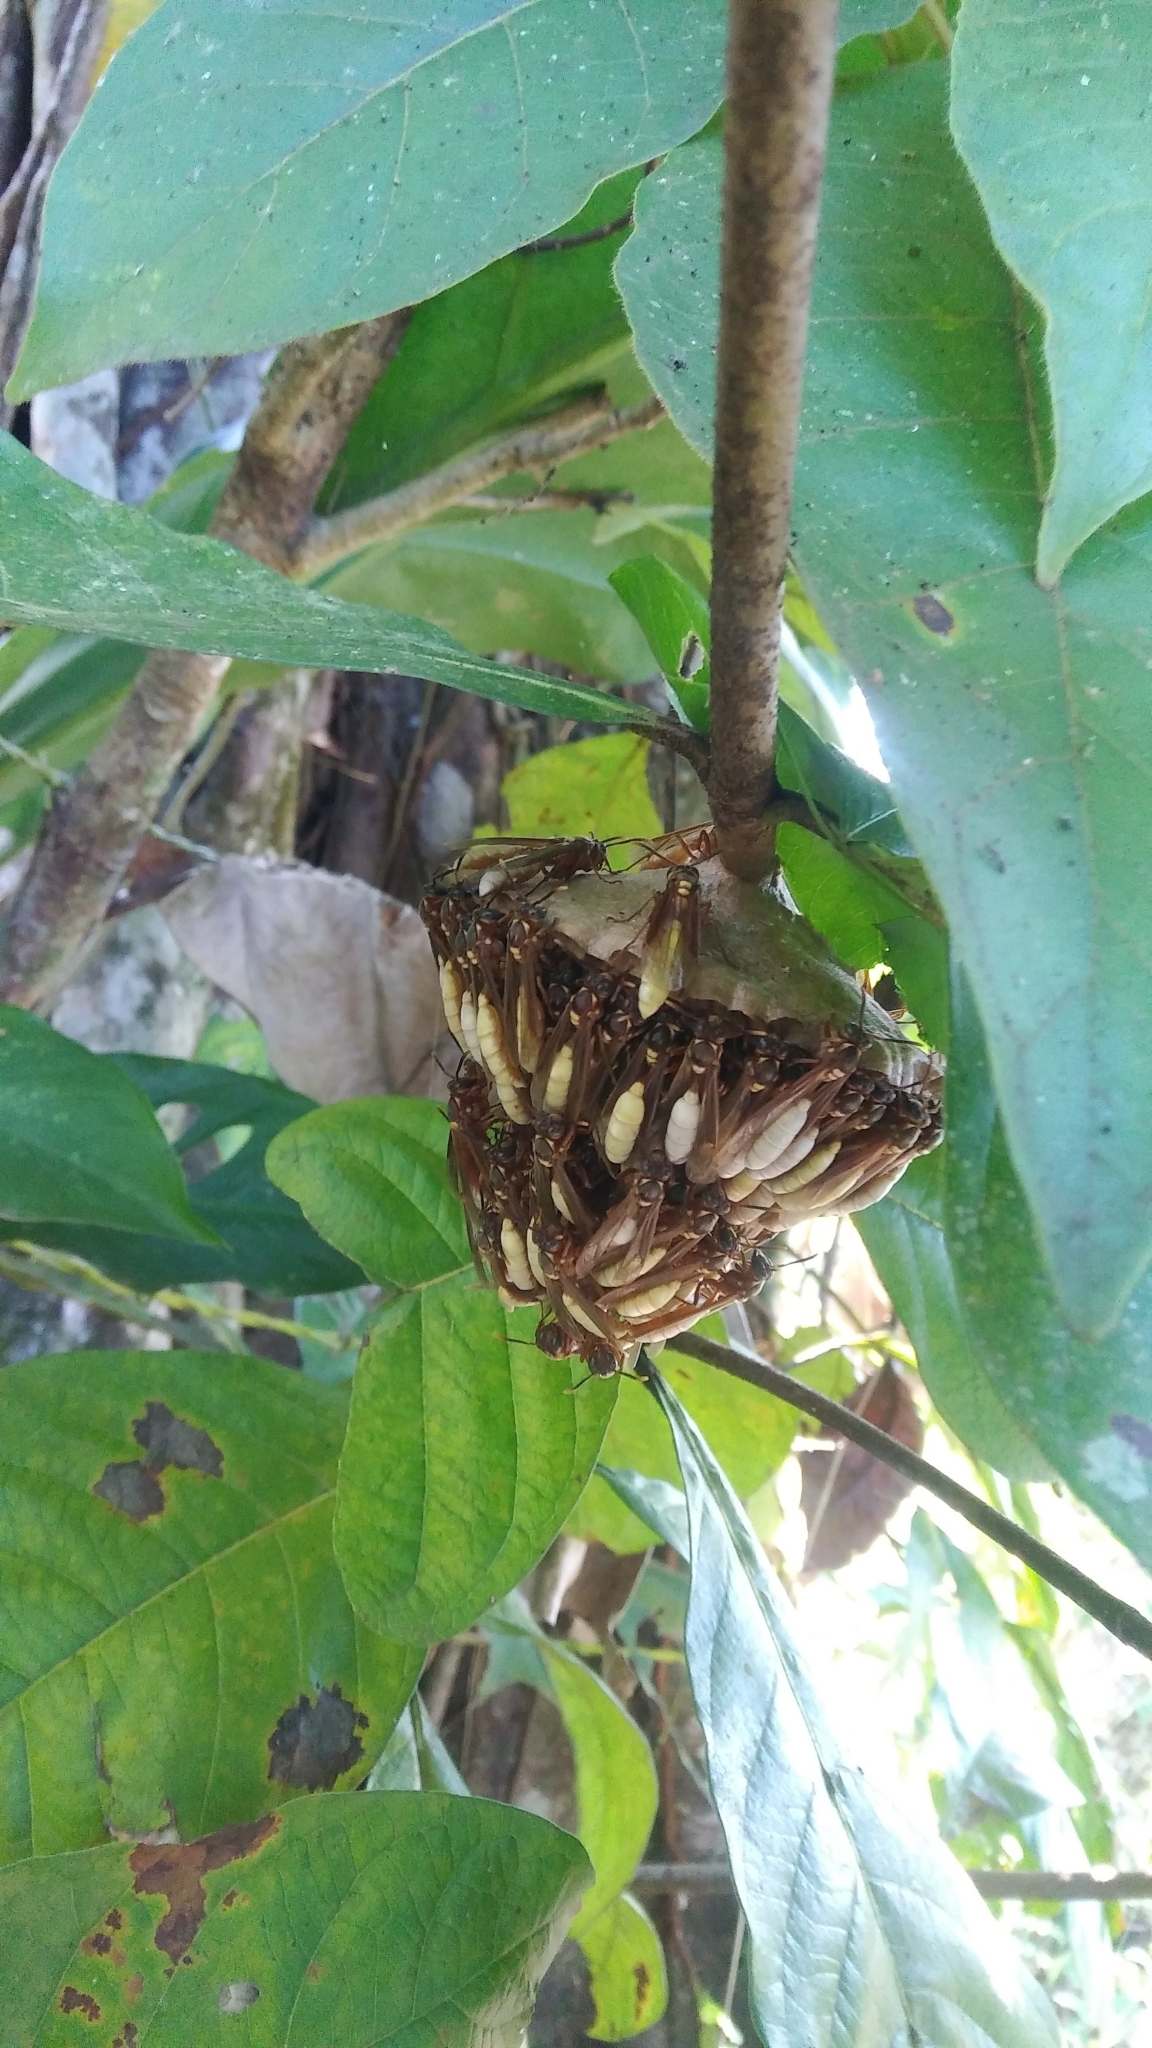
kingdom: Animalia
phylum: Arthropoda
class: Insecta
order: Hymenoptera
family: Vespidae
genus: Apoica
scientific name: Apoica pallens
